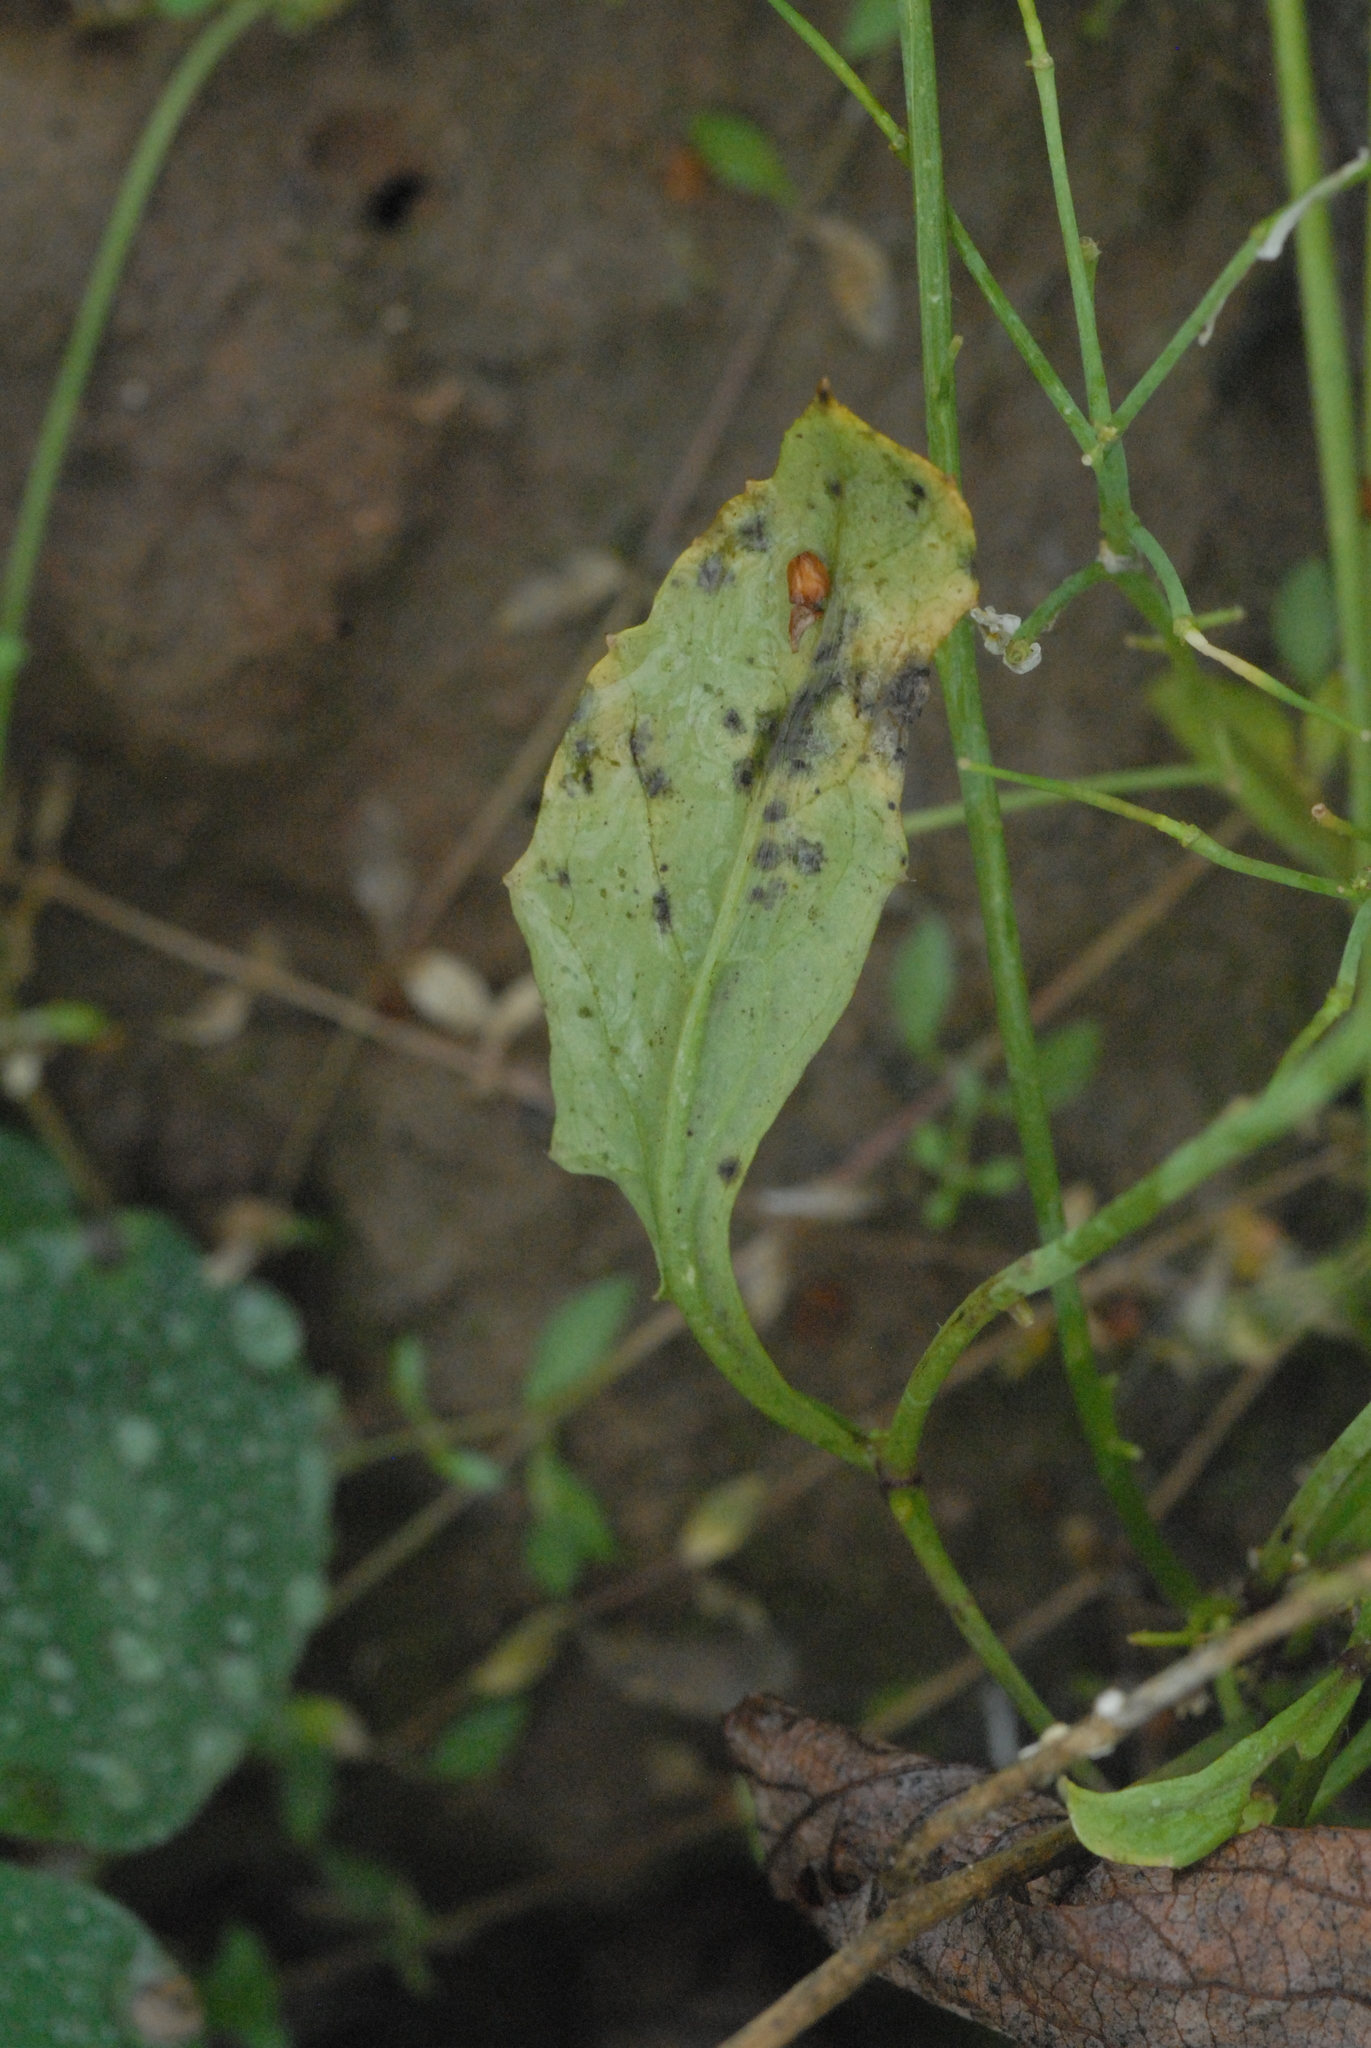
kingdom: Plantae
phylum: Tracheophyta
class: Magnoliopsida
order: Brassicales
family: Brassicaceae
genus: Raphanus
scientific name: Raphanus raphanistrum
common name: Wild radish
